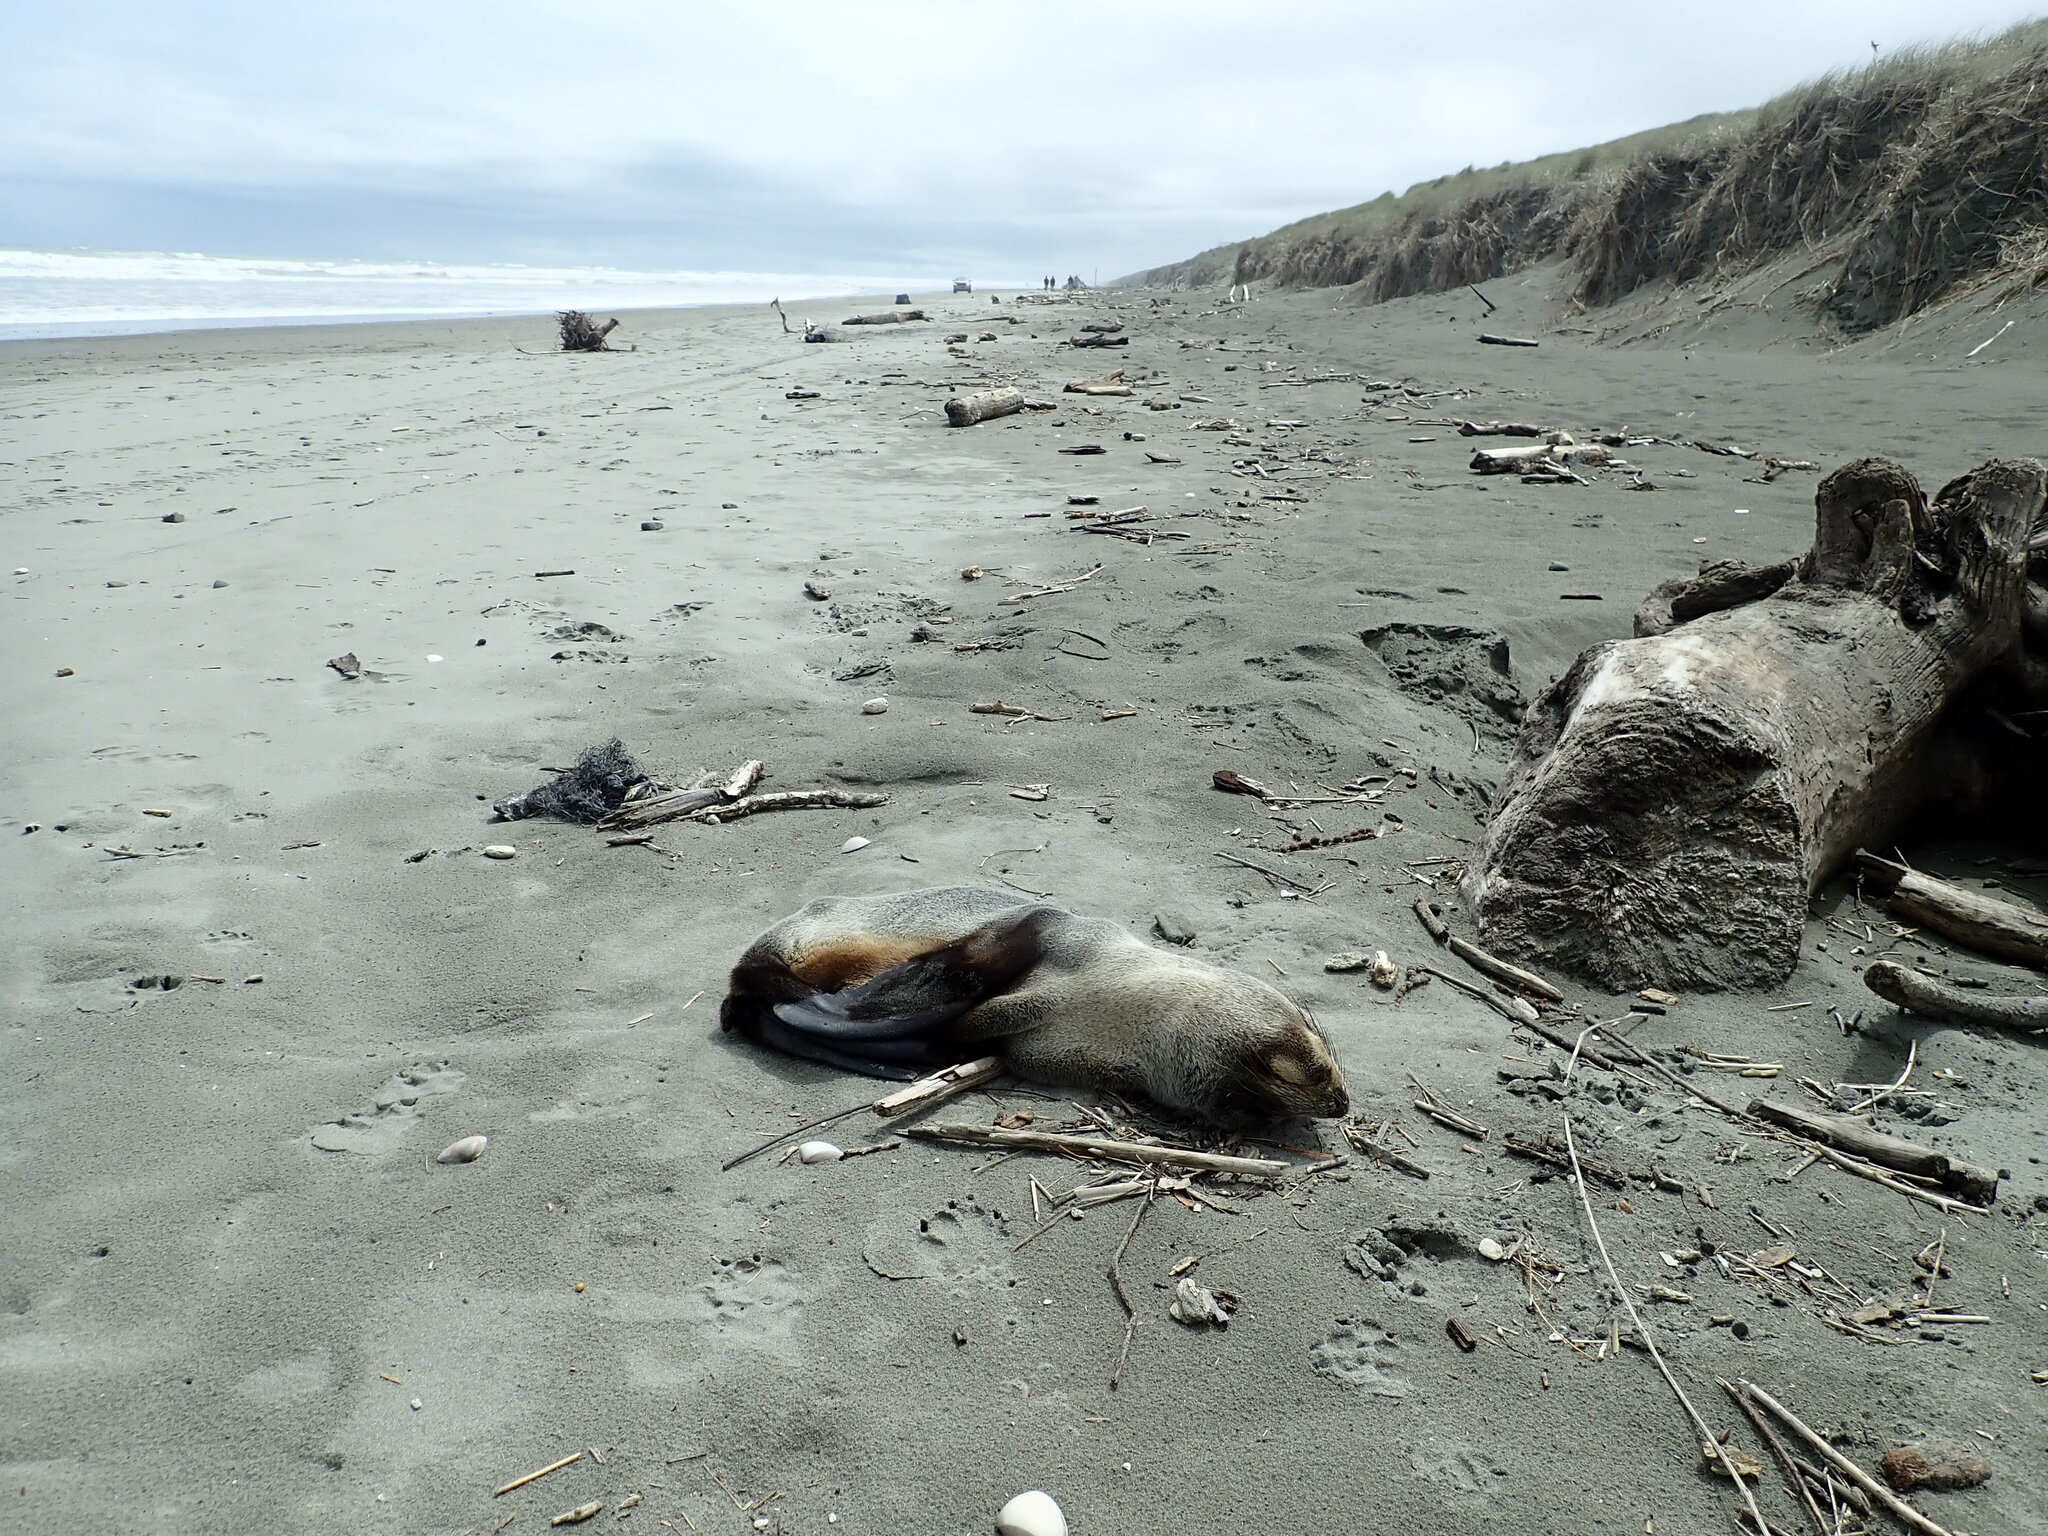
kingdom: Animalia
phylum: Chordata
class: Mammalia
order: Carnivora
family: Otariidae
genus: Arctocephalus
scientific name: Arctocephalus forsteri
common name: New zealand fur seal
